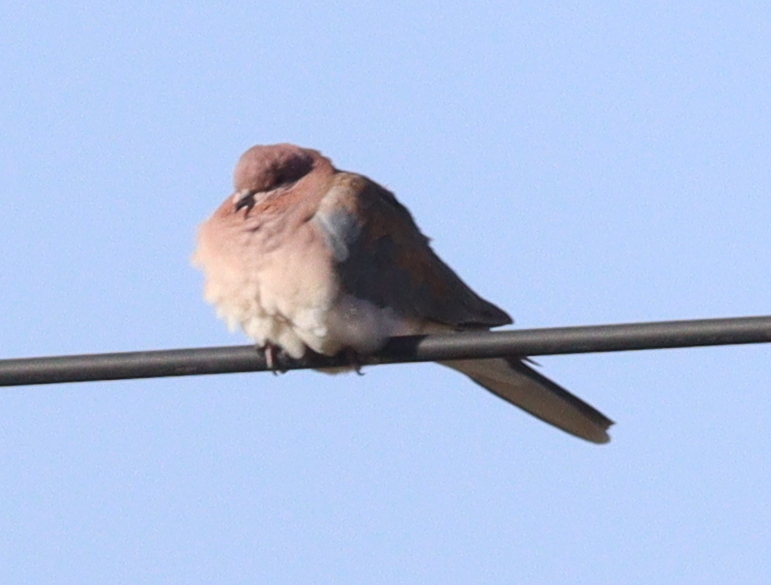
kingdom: Animalia
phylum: Chordata
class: Aves
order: Columbiformes
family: Columbidae
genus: Spilopelia
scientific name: Spilopelia senegalensis
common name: Laughing dove
